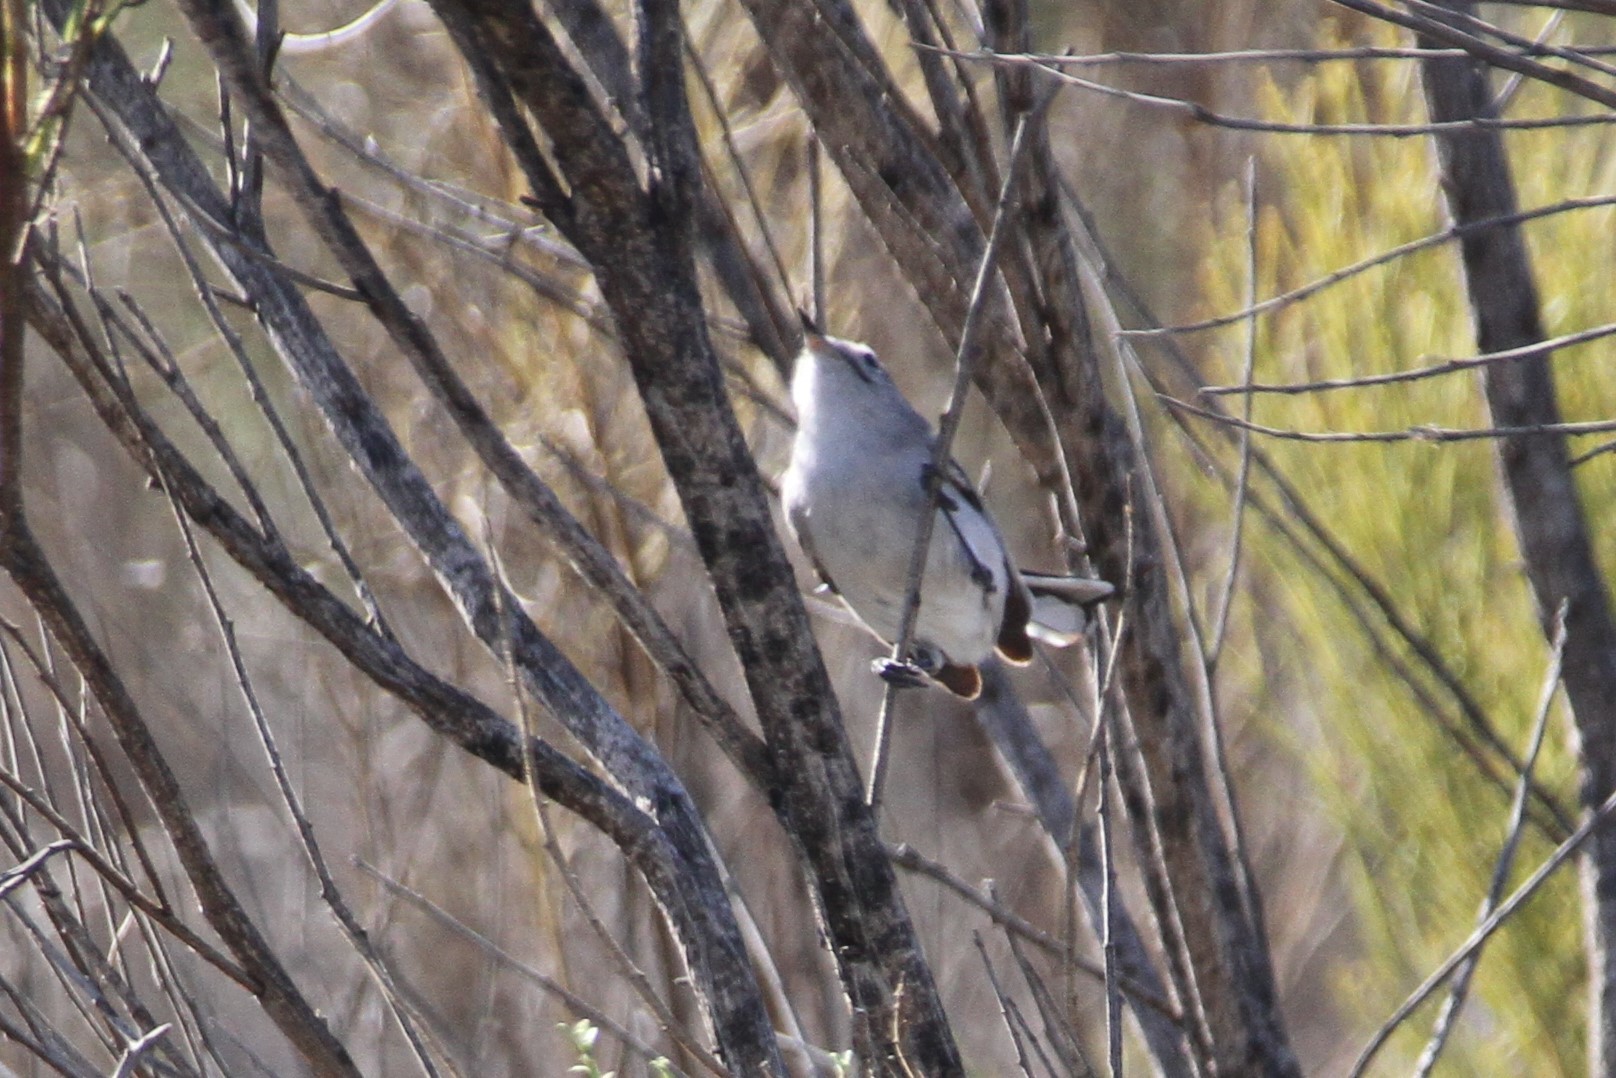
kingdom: Animalia
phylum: Chordata
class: Aves
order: Passeriformes
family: Polioptilidae
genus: Polioptila
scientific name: Polioptila caerulea
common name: Blue-gray gnatcatcher
